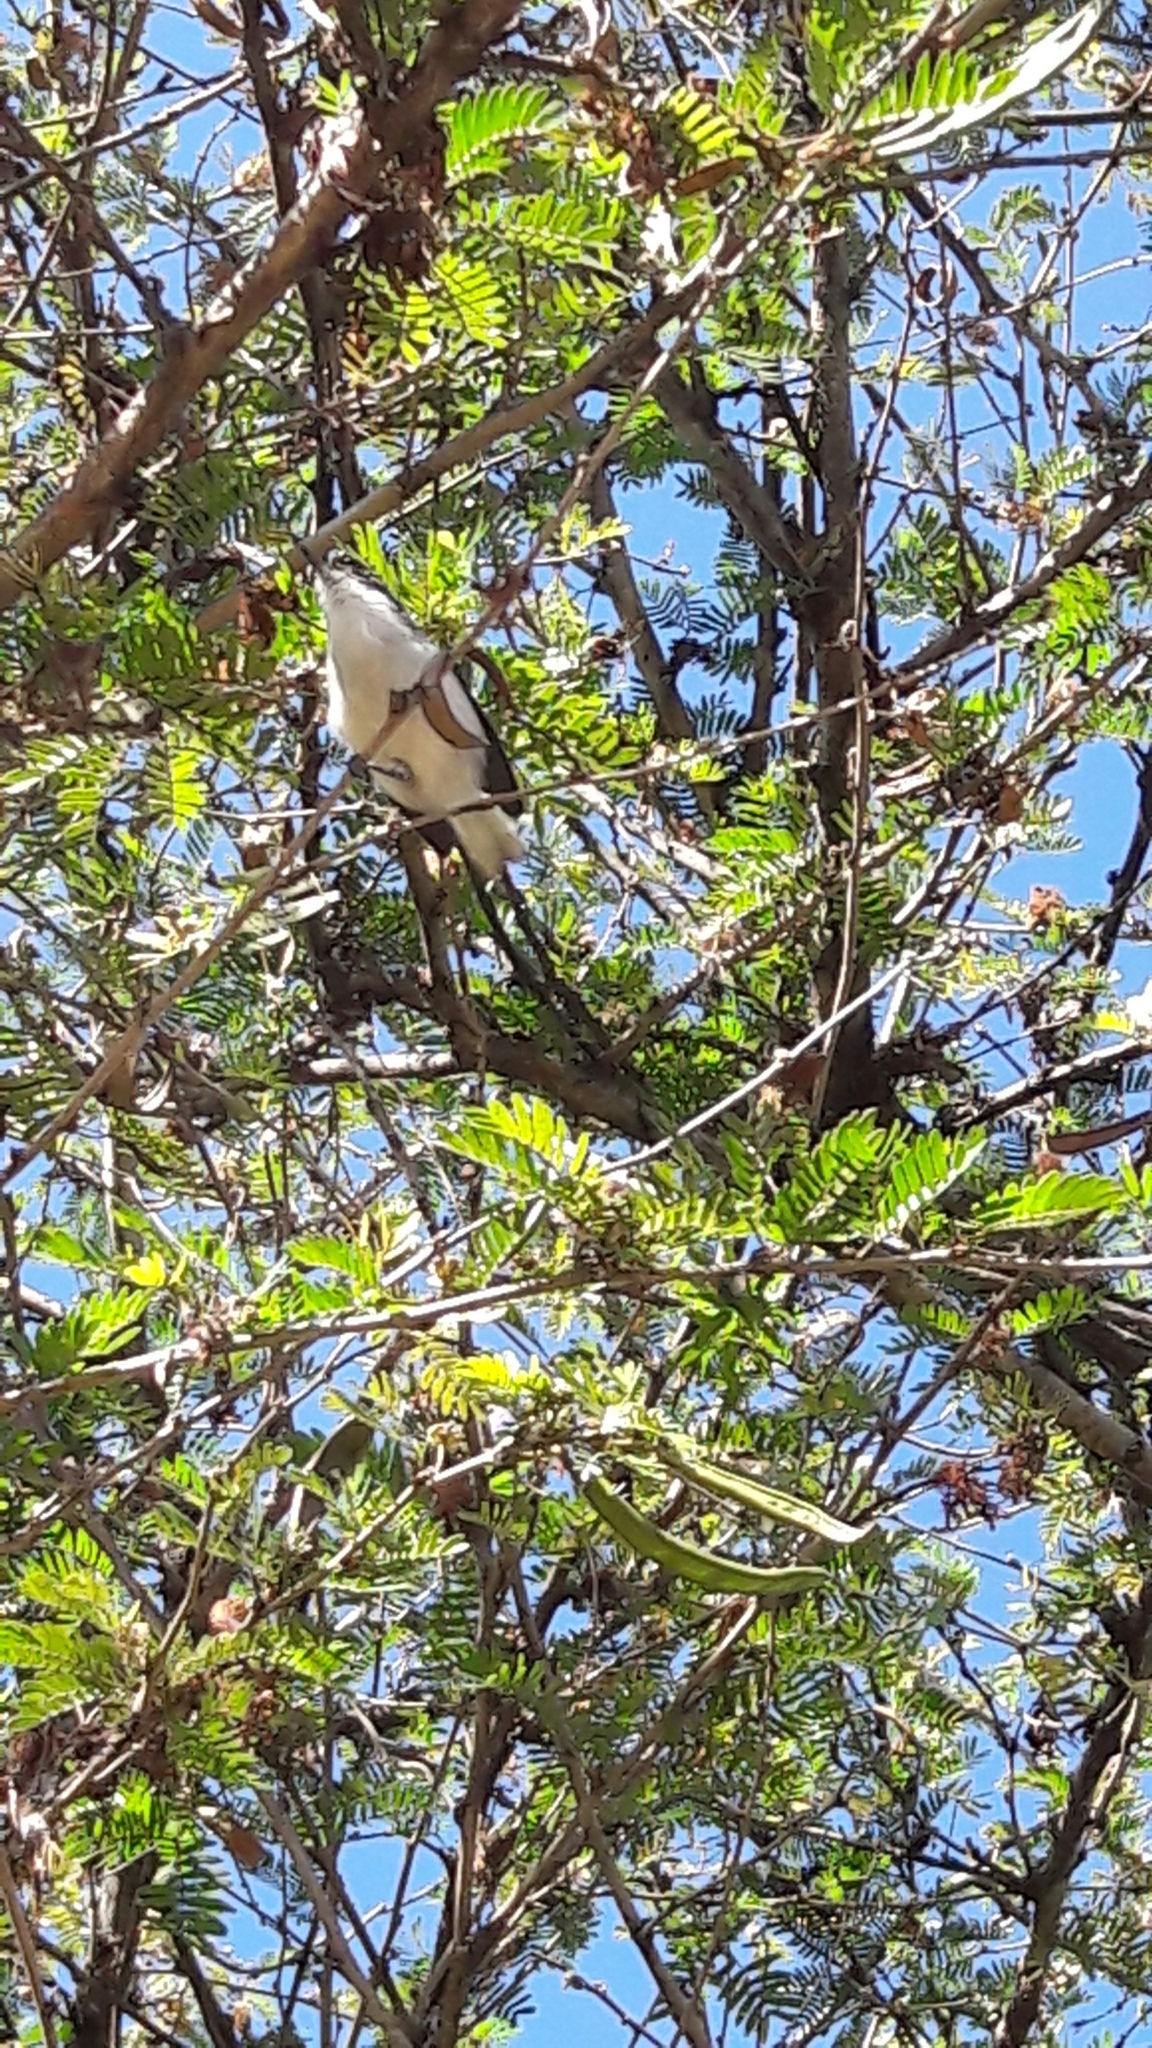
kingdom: Animalia
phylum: Chordata
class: Aves
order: Passeriformes
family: Polioptilidae
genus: Polioptila
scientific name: Polioptila dumicola
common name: Masked gnatcatcher
